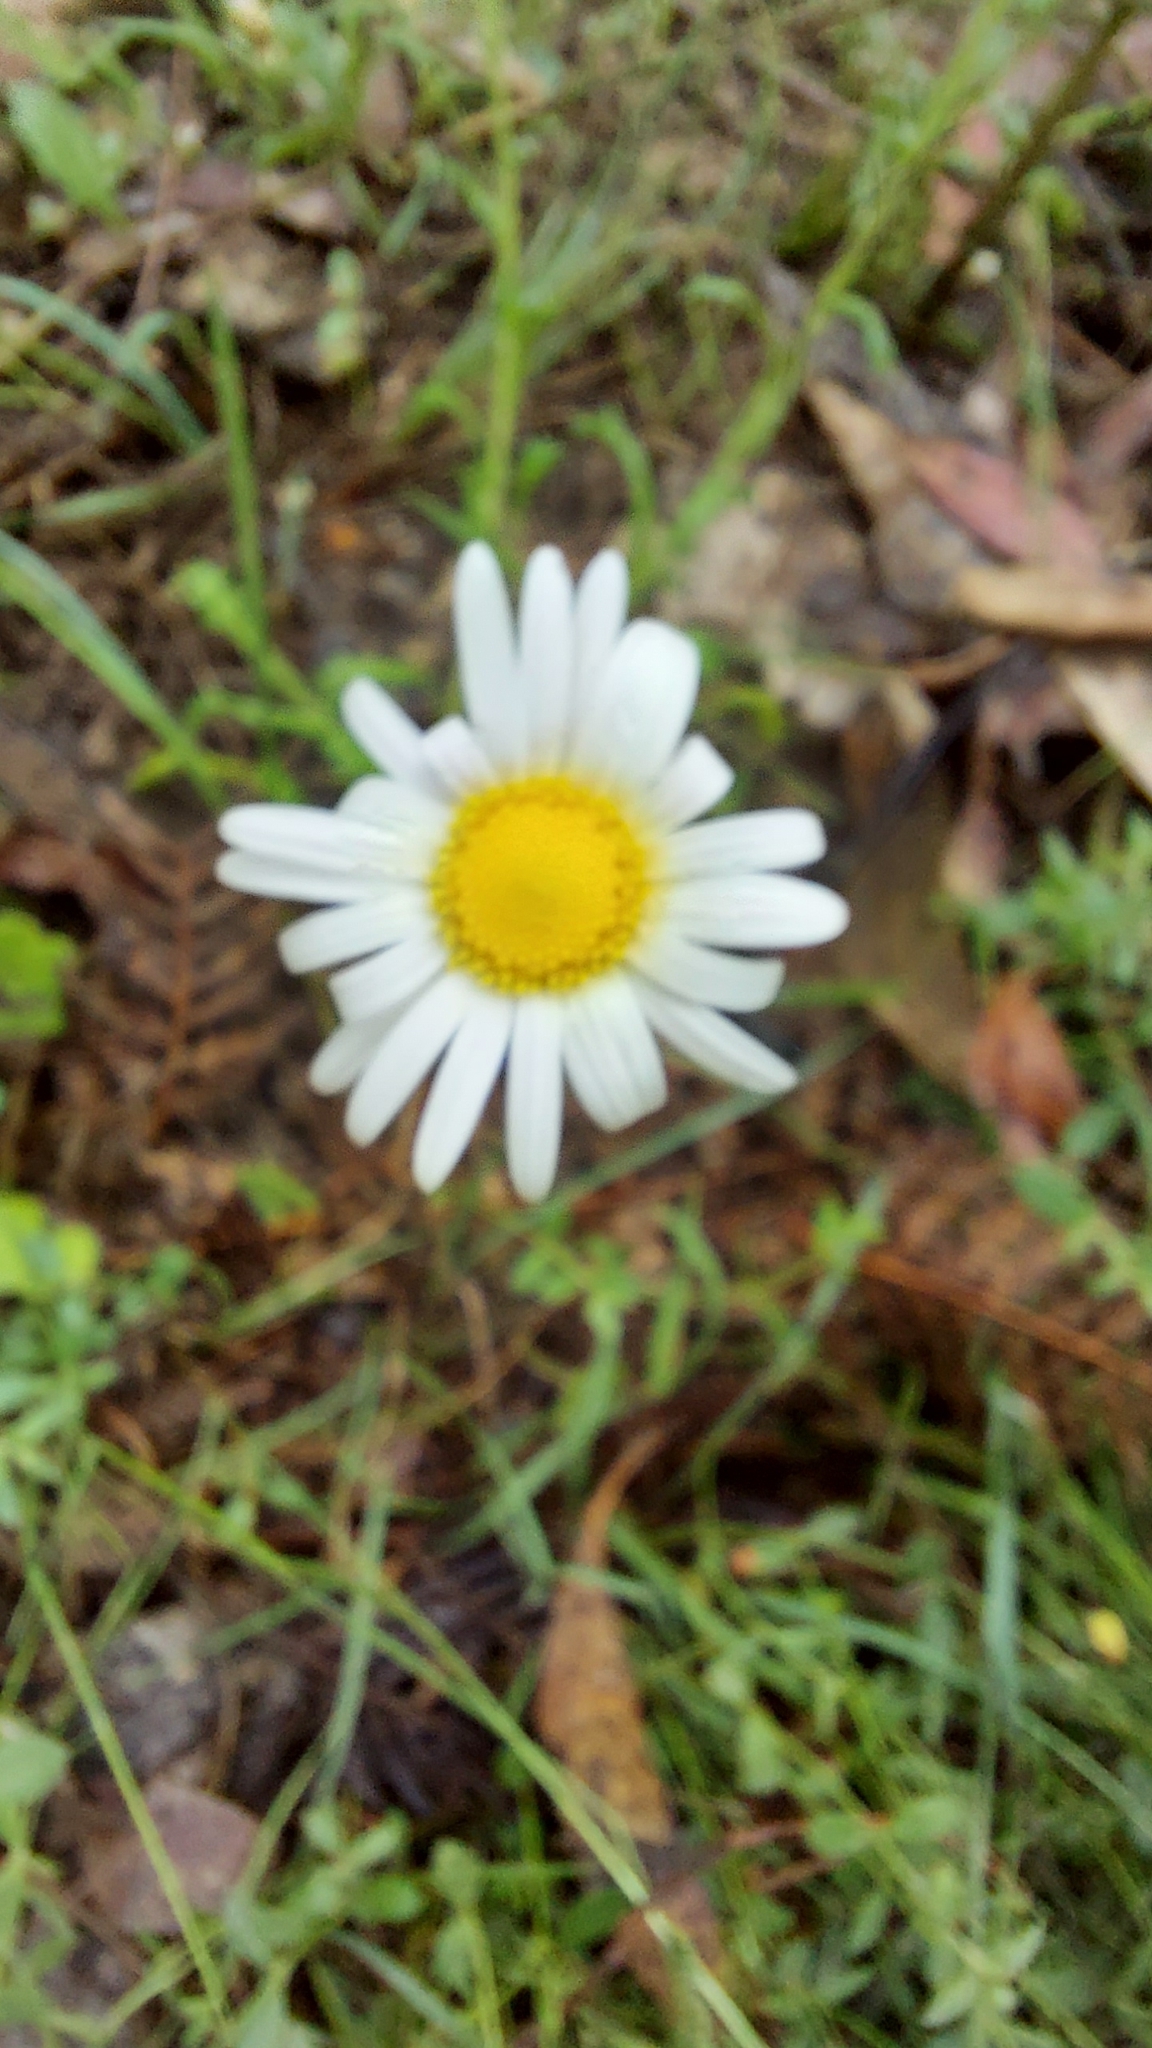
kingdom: Plantae
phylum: Tracheophyta
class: Magnoliopsida
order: Asterales
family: Asteraceae
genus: Brachyscome
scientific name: Brachyscome diversifolia
